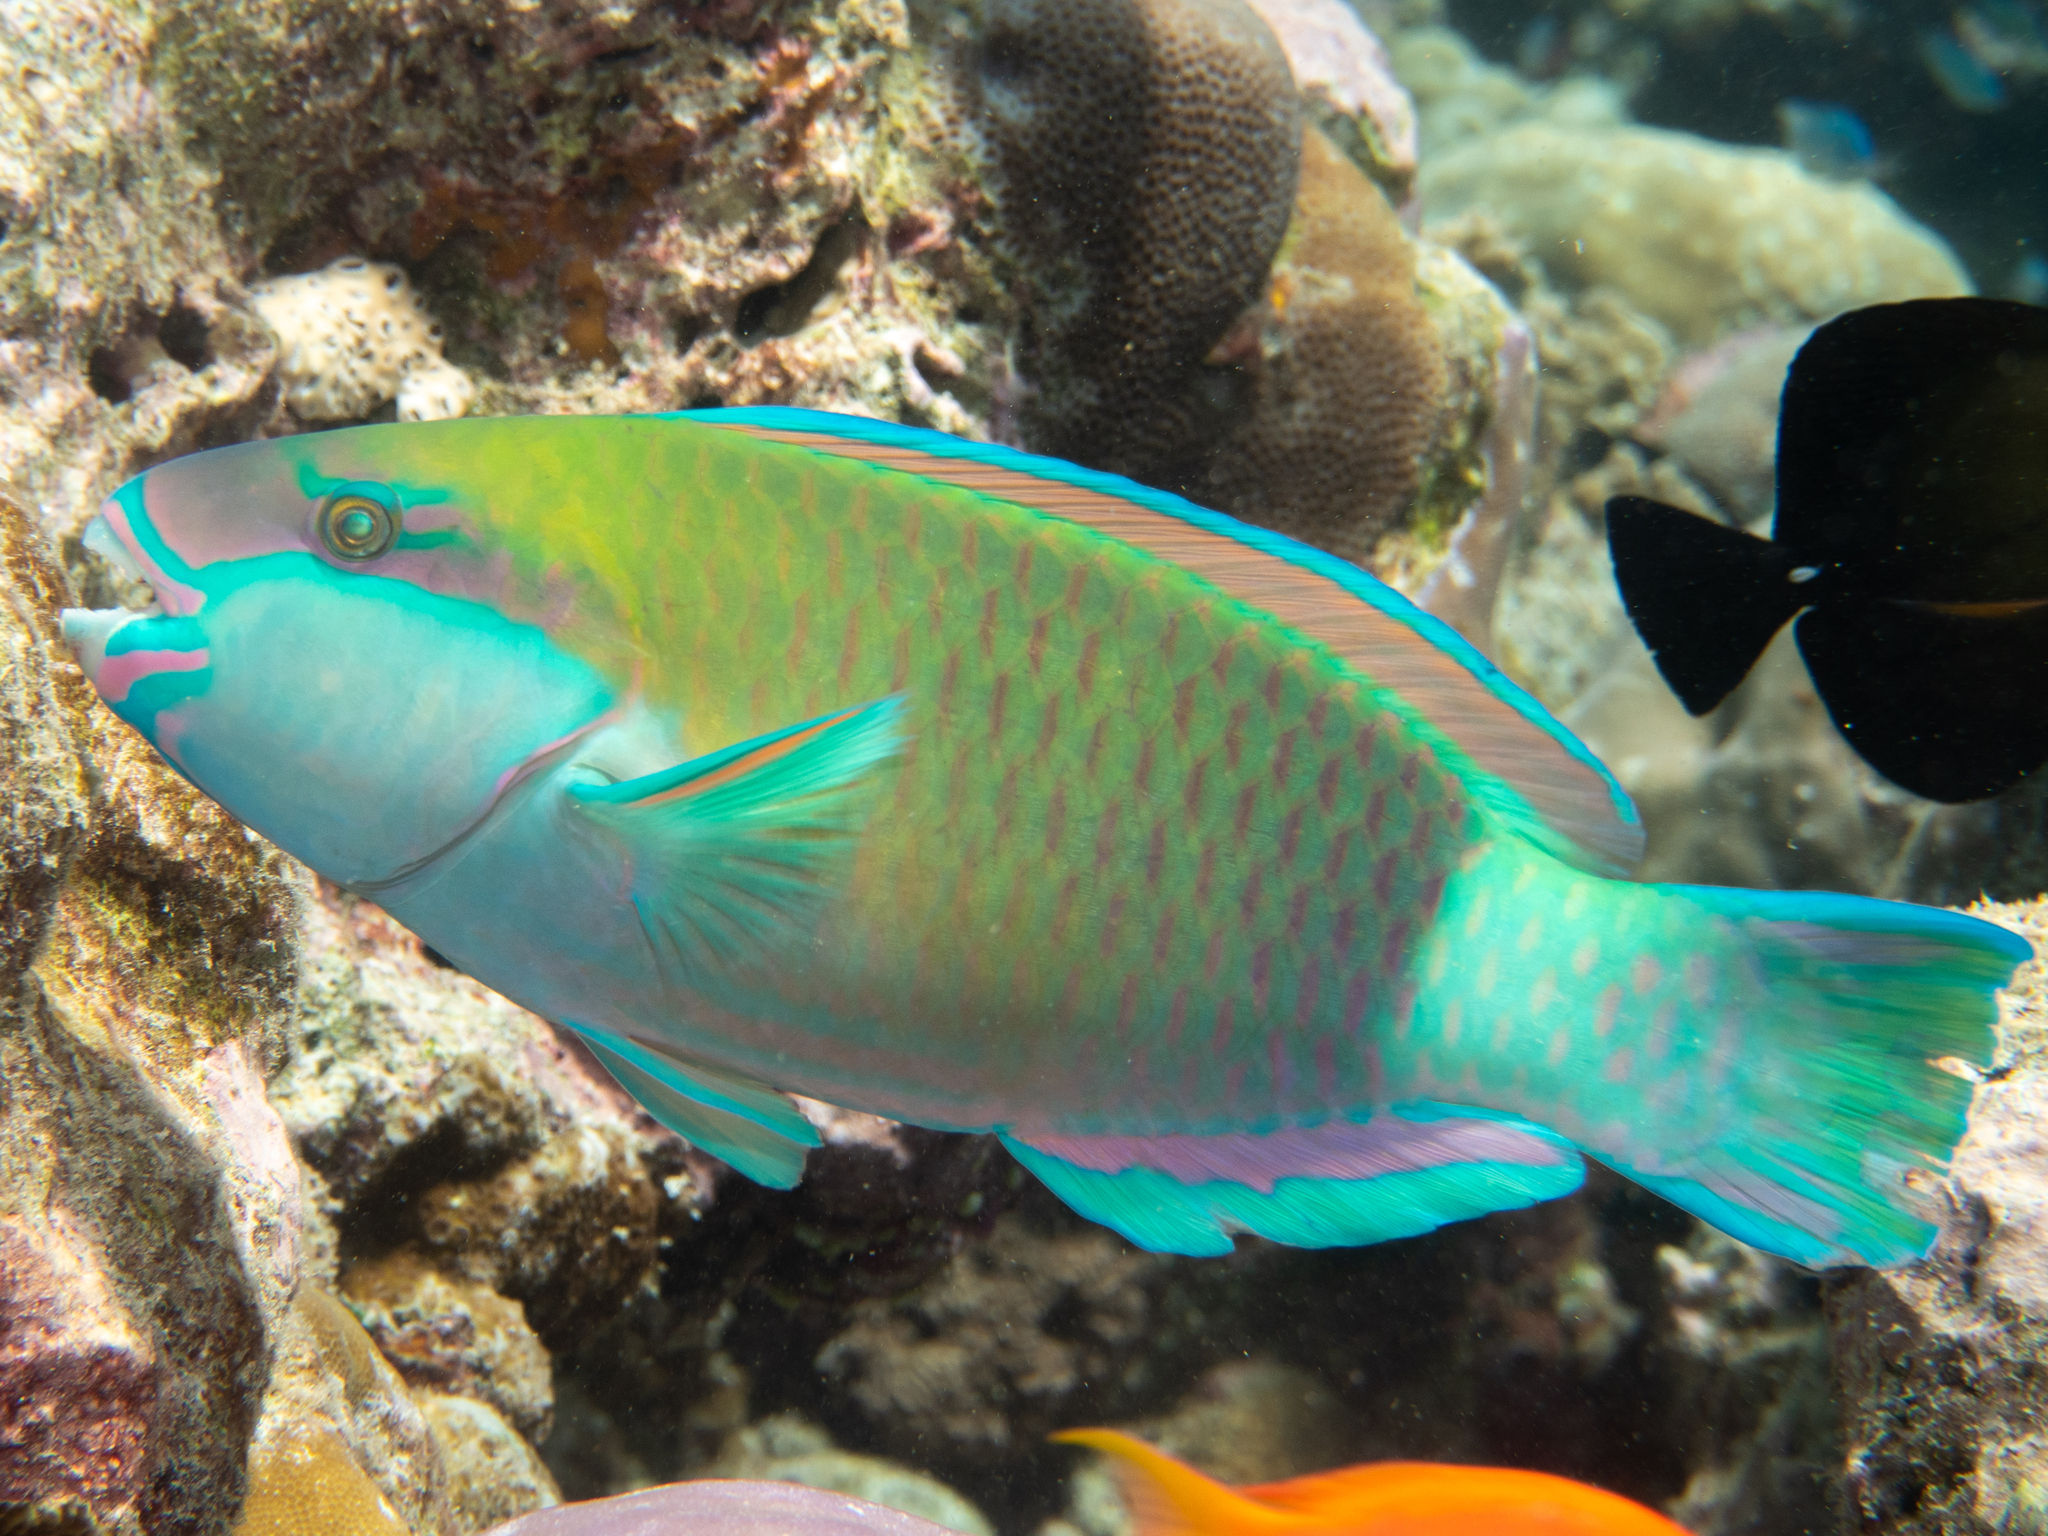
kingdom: Animalia
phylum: Chordata
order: Perciformes
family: Scaridae
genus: Chlorurus
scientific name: Chlorurus sordidus
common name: Bullethead parrotfish
